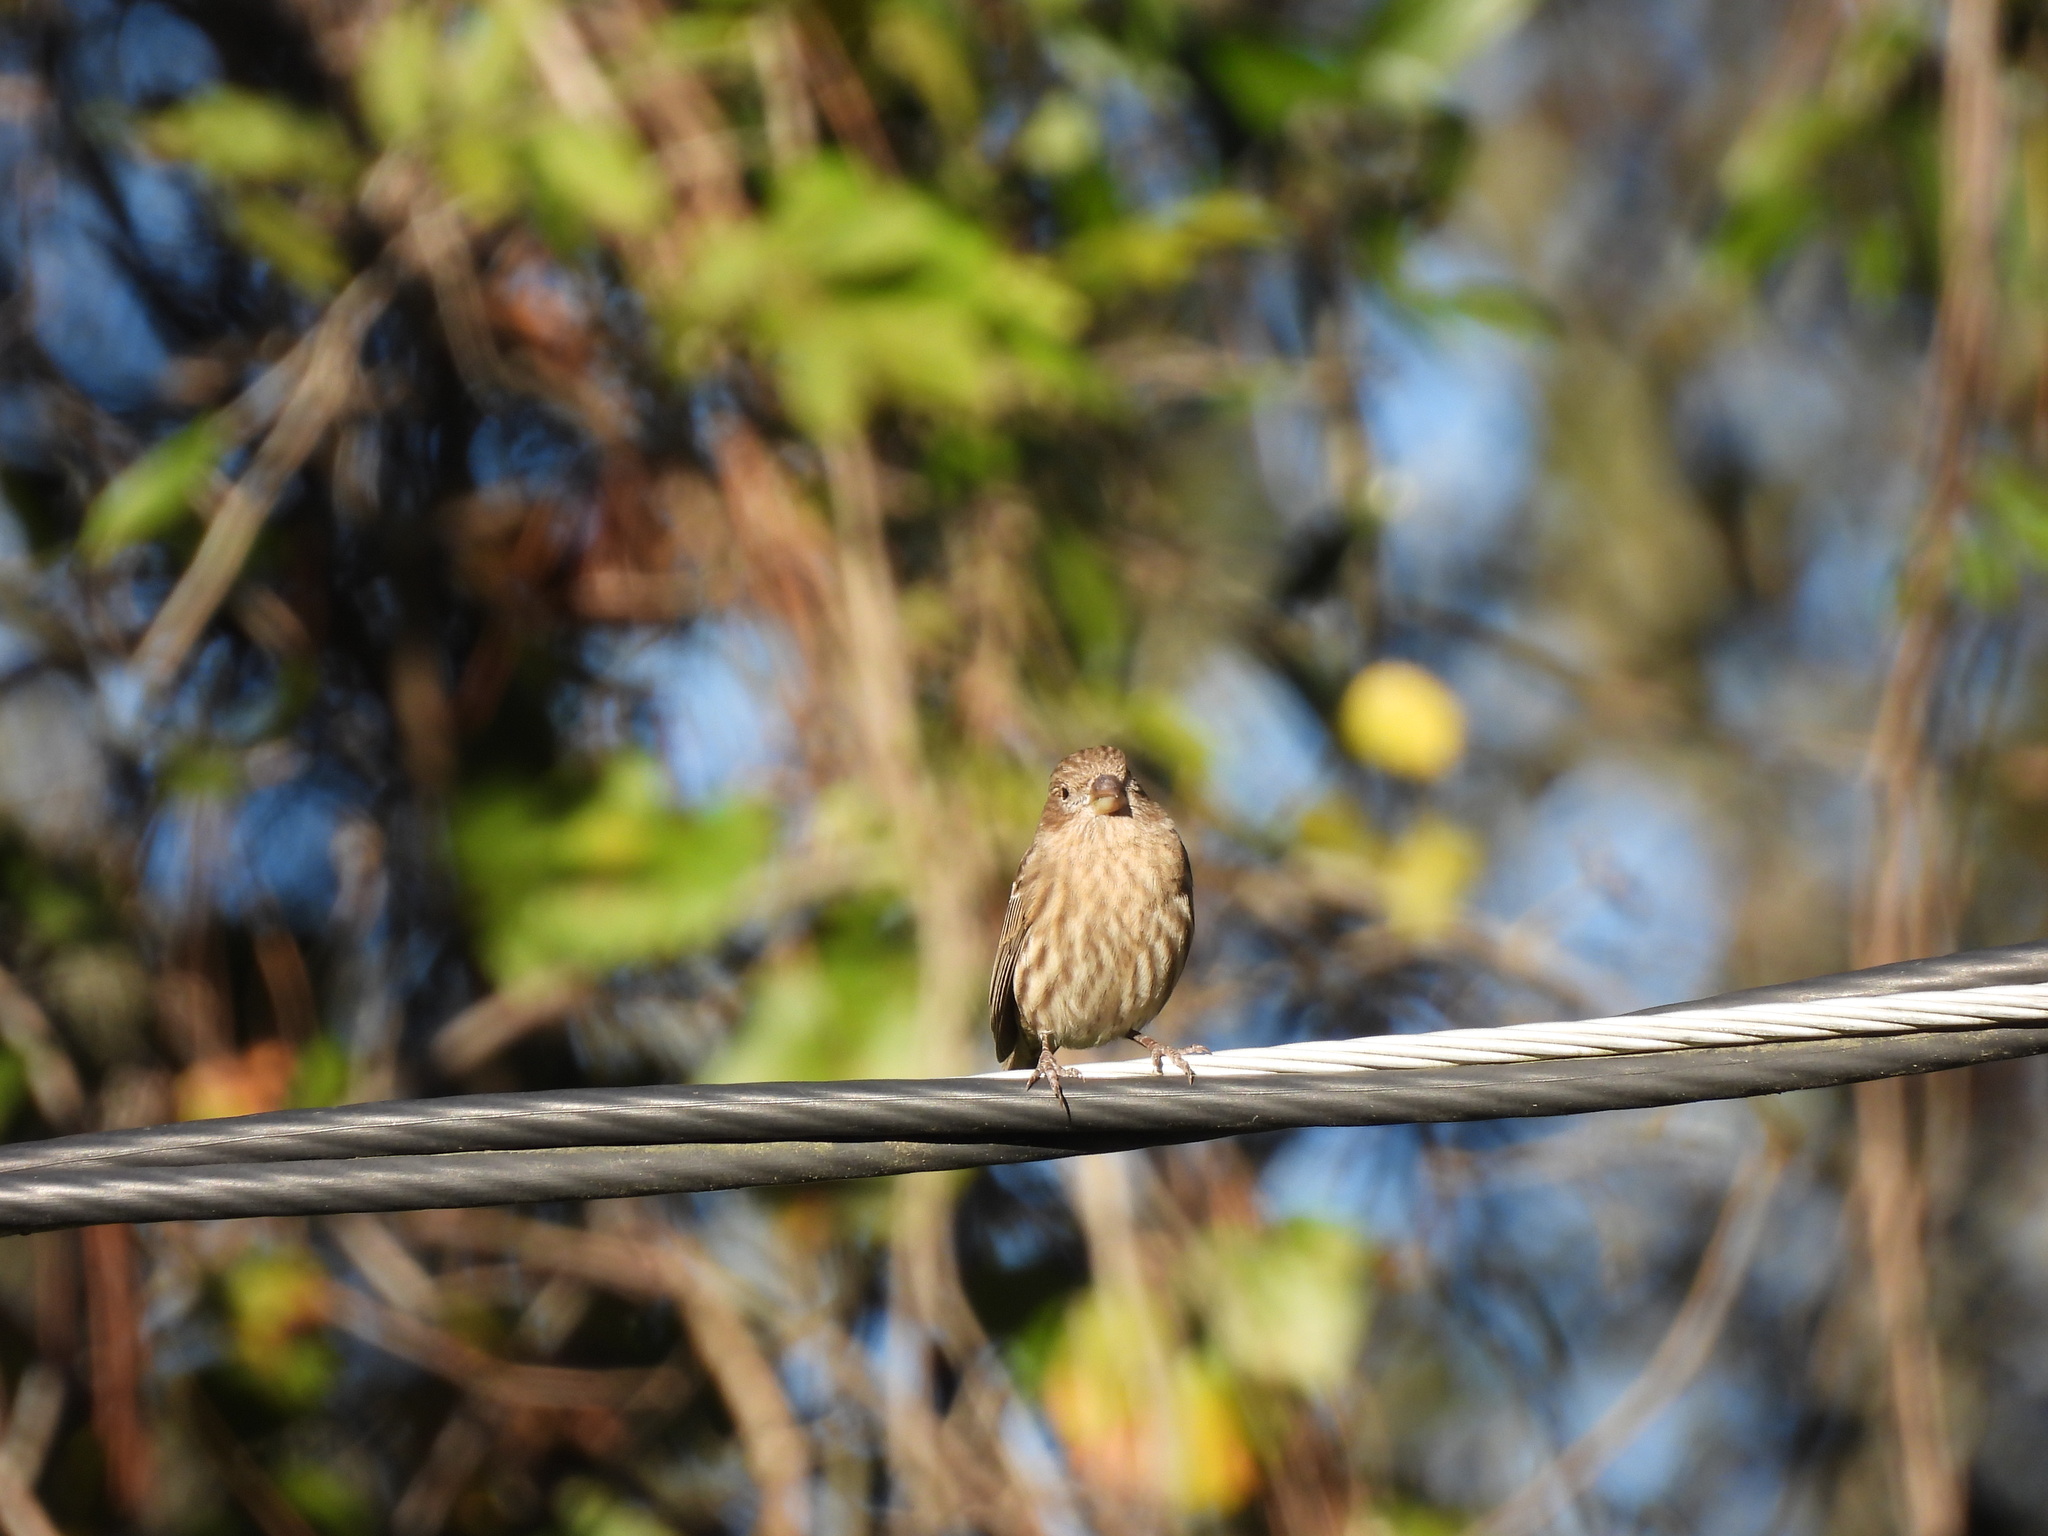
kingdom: Animalia
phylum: Chordata
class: Aves
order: Passeriformes
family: Fringillidae
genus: Haemorhous
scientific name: Haemorhous mexicanus
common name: House finch
